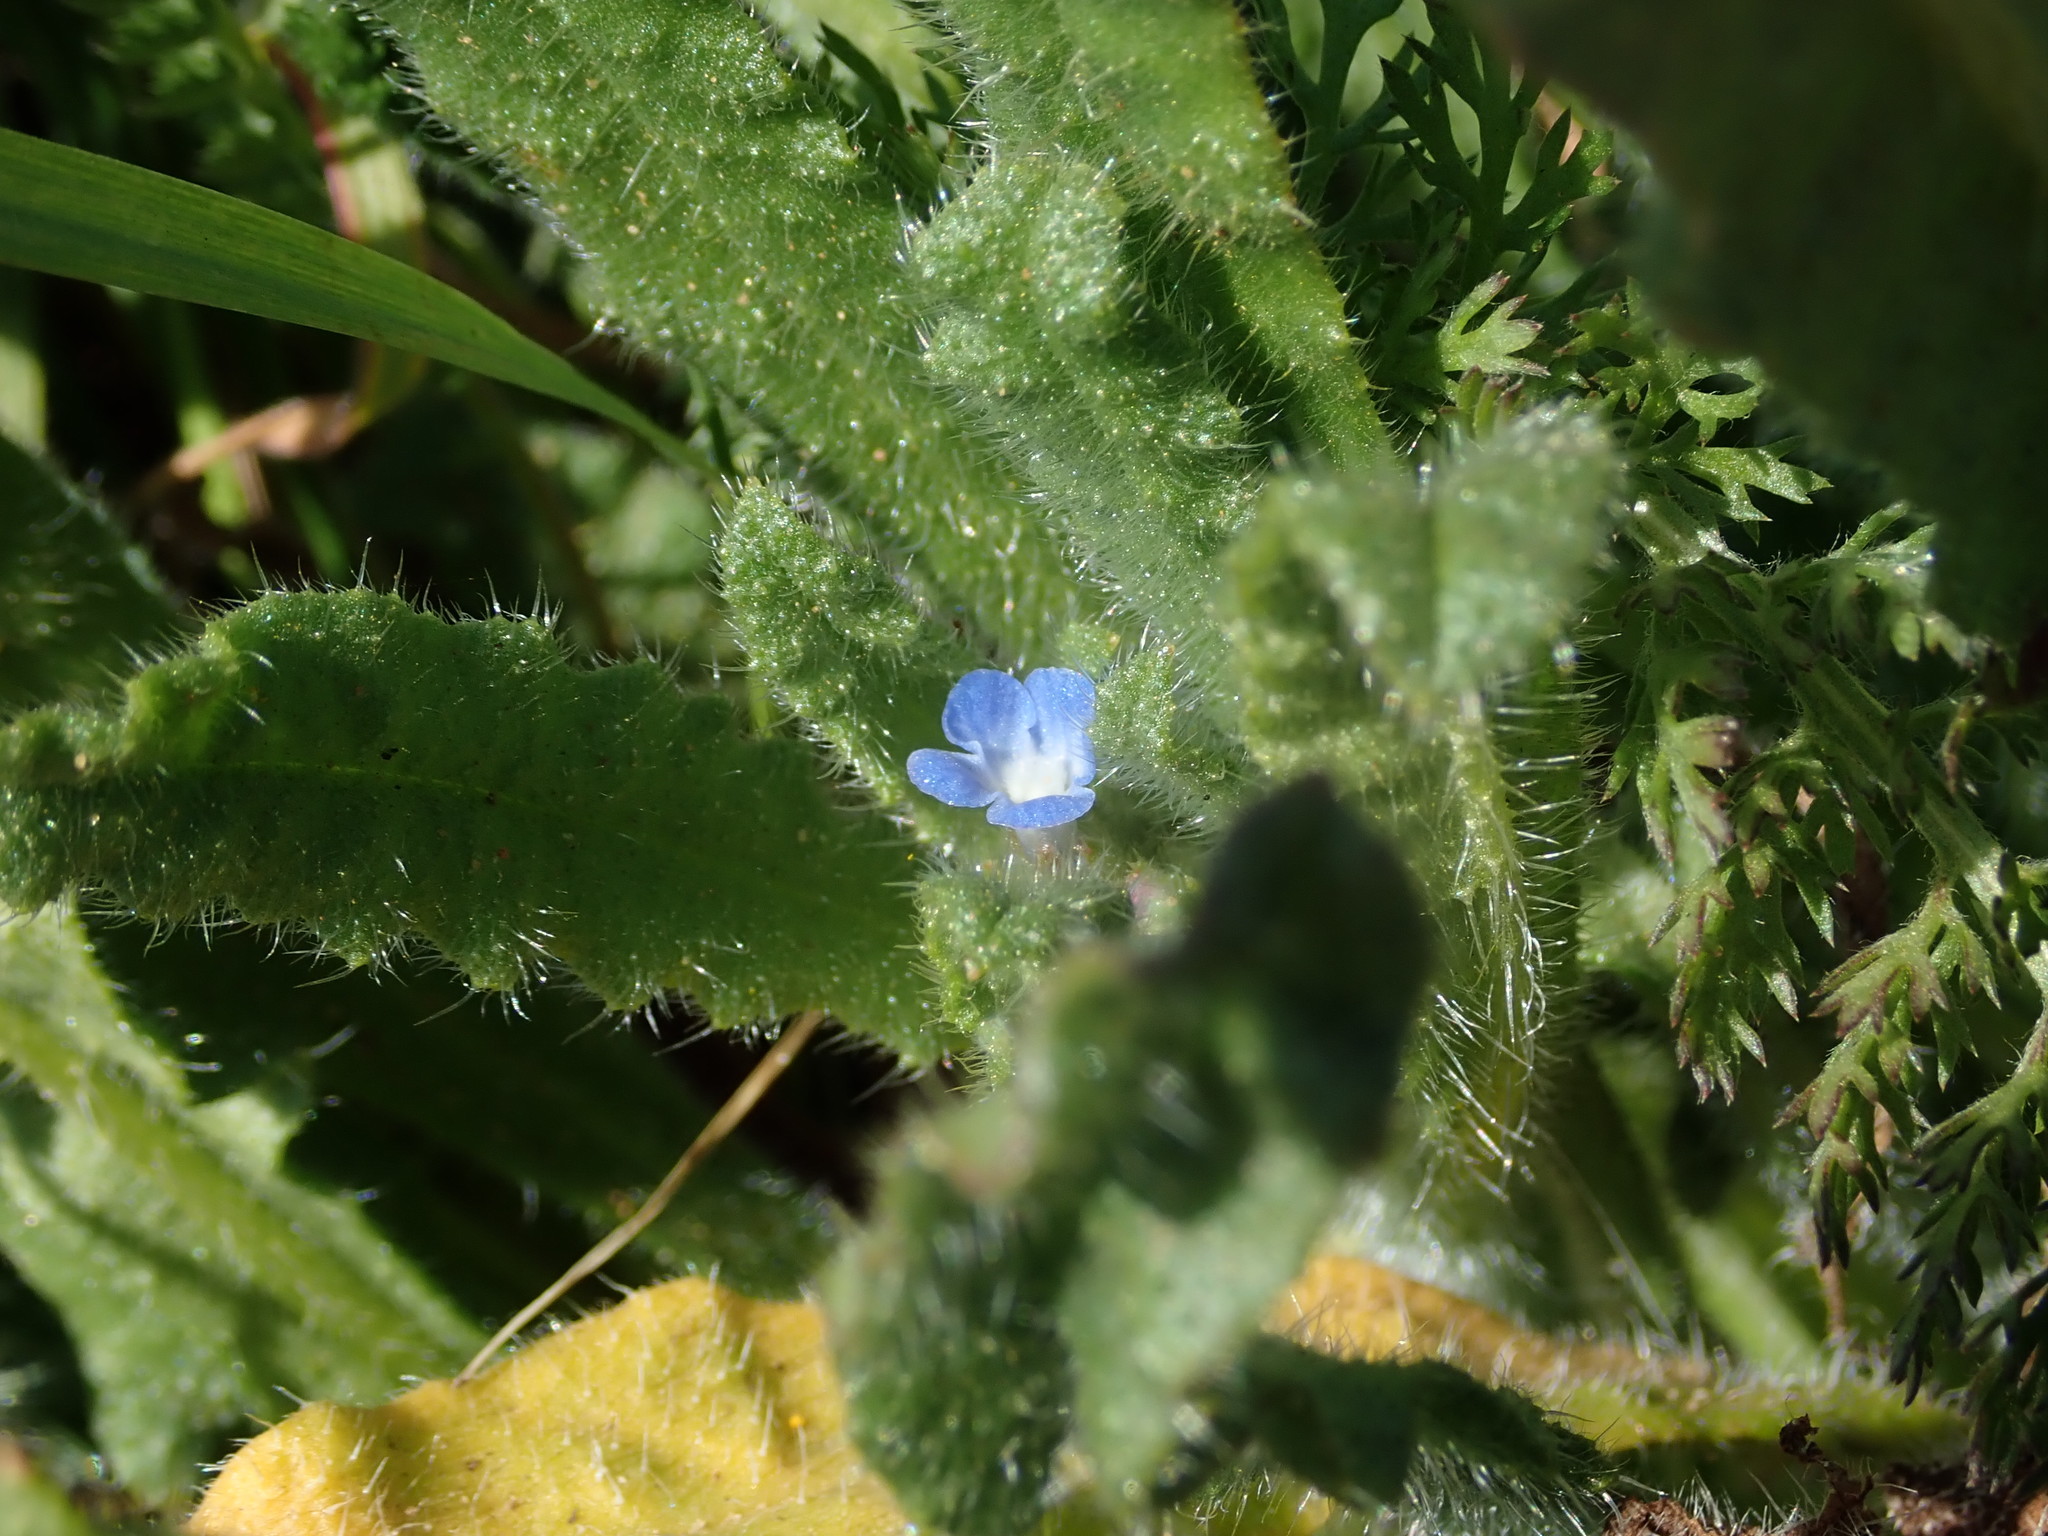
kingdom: Plantae
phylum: Tracheophyta
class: Magnoliopsida
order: Boraginales
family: Boraginaceae
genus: Lycopsis
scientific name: Lycopsis arvensis
